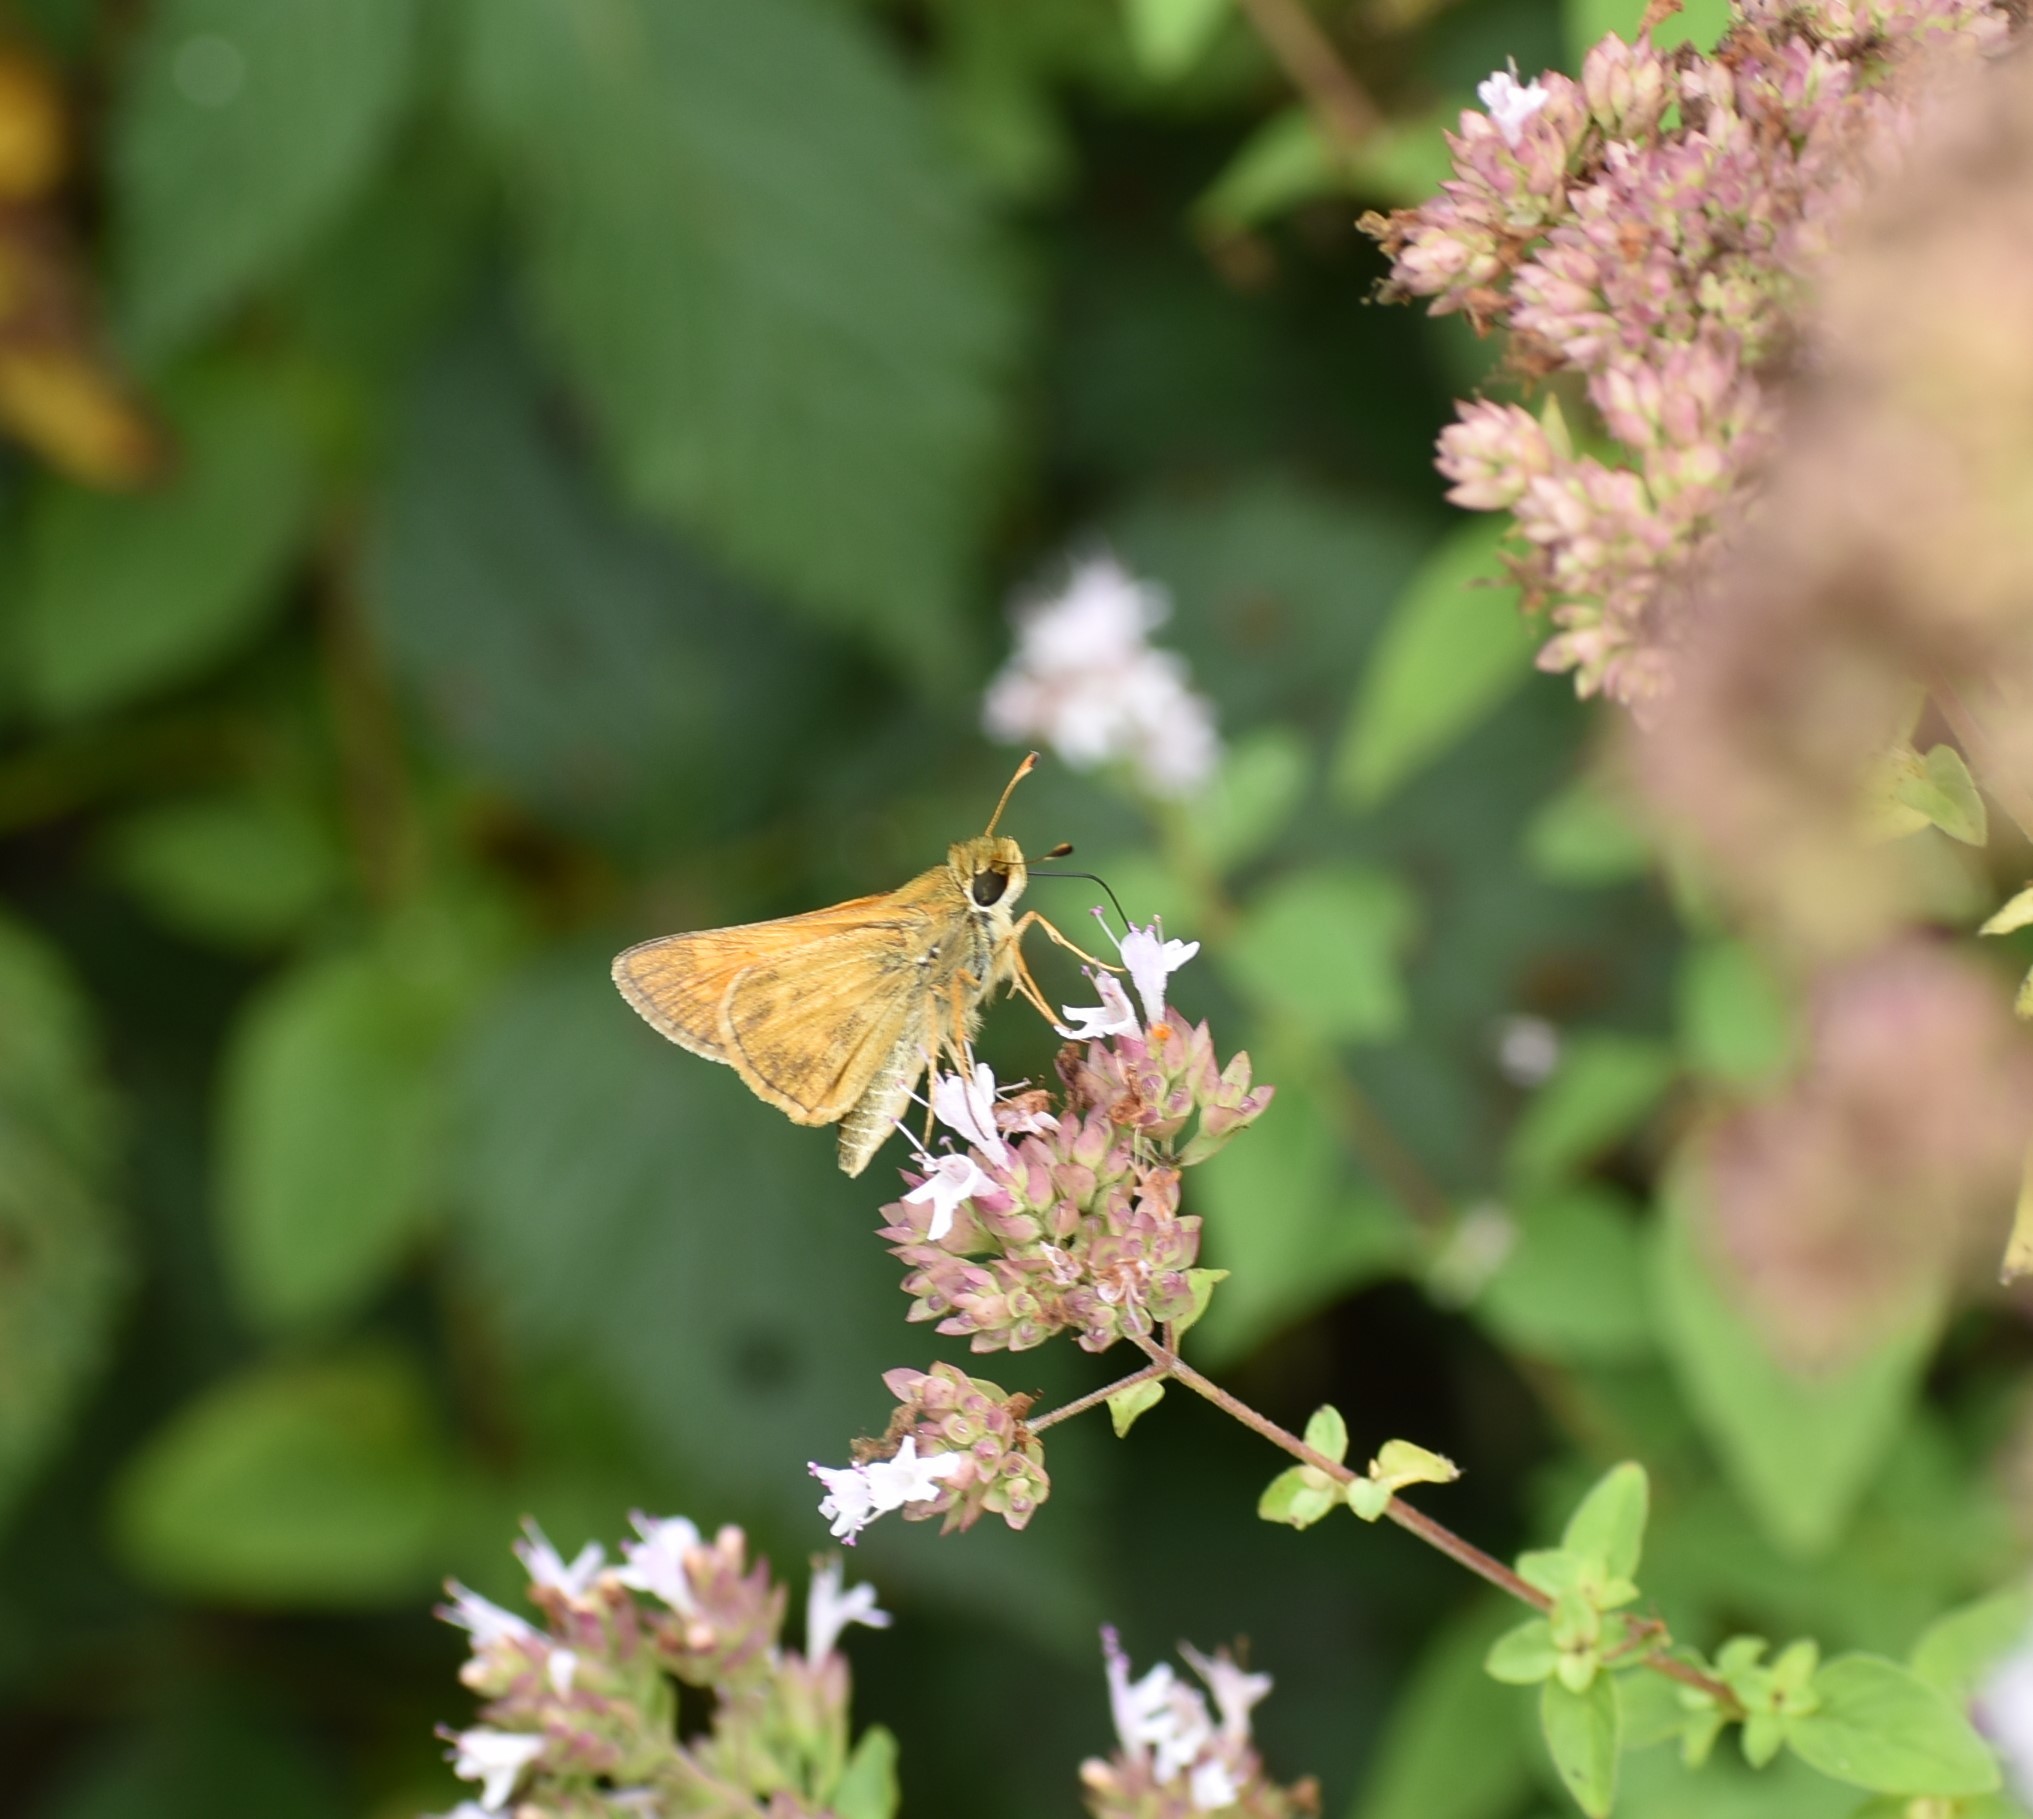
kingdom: Animalia
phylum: Arthropoda
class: Insecta
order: Lepidoptera
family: Hesperiidae
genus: Atalopedes
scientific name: Atalopedes
